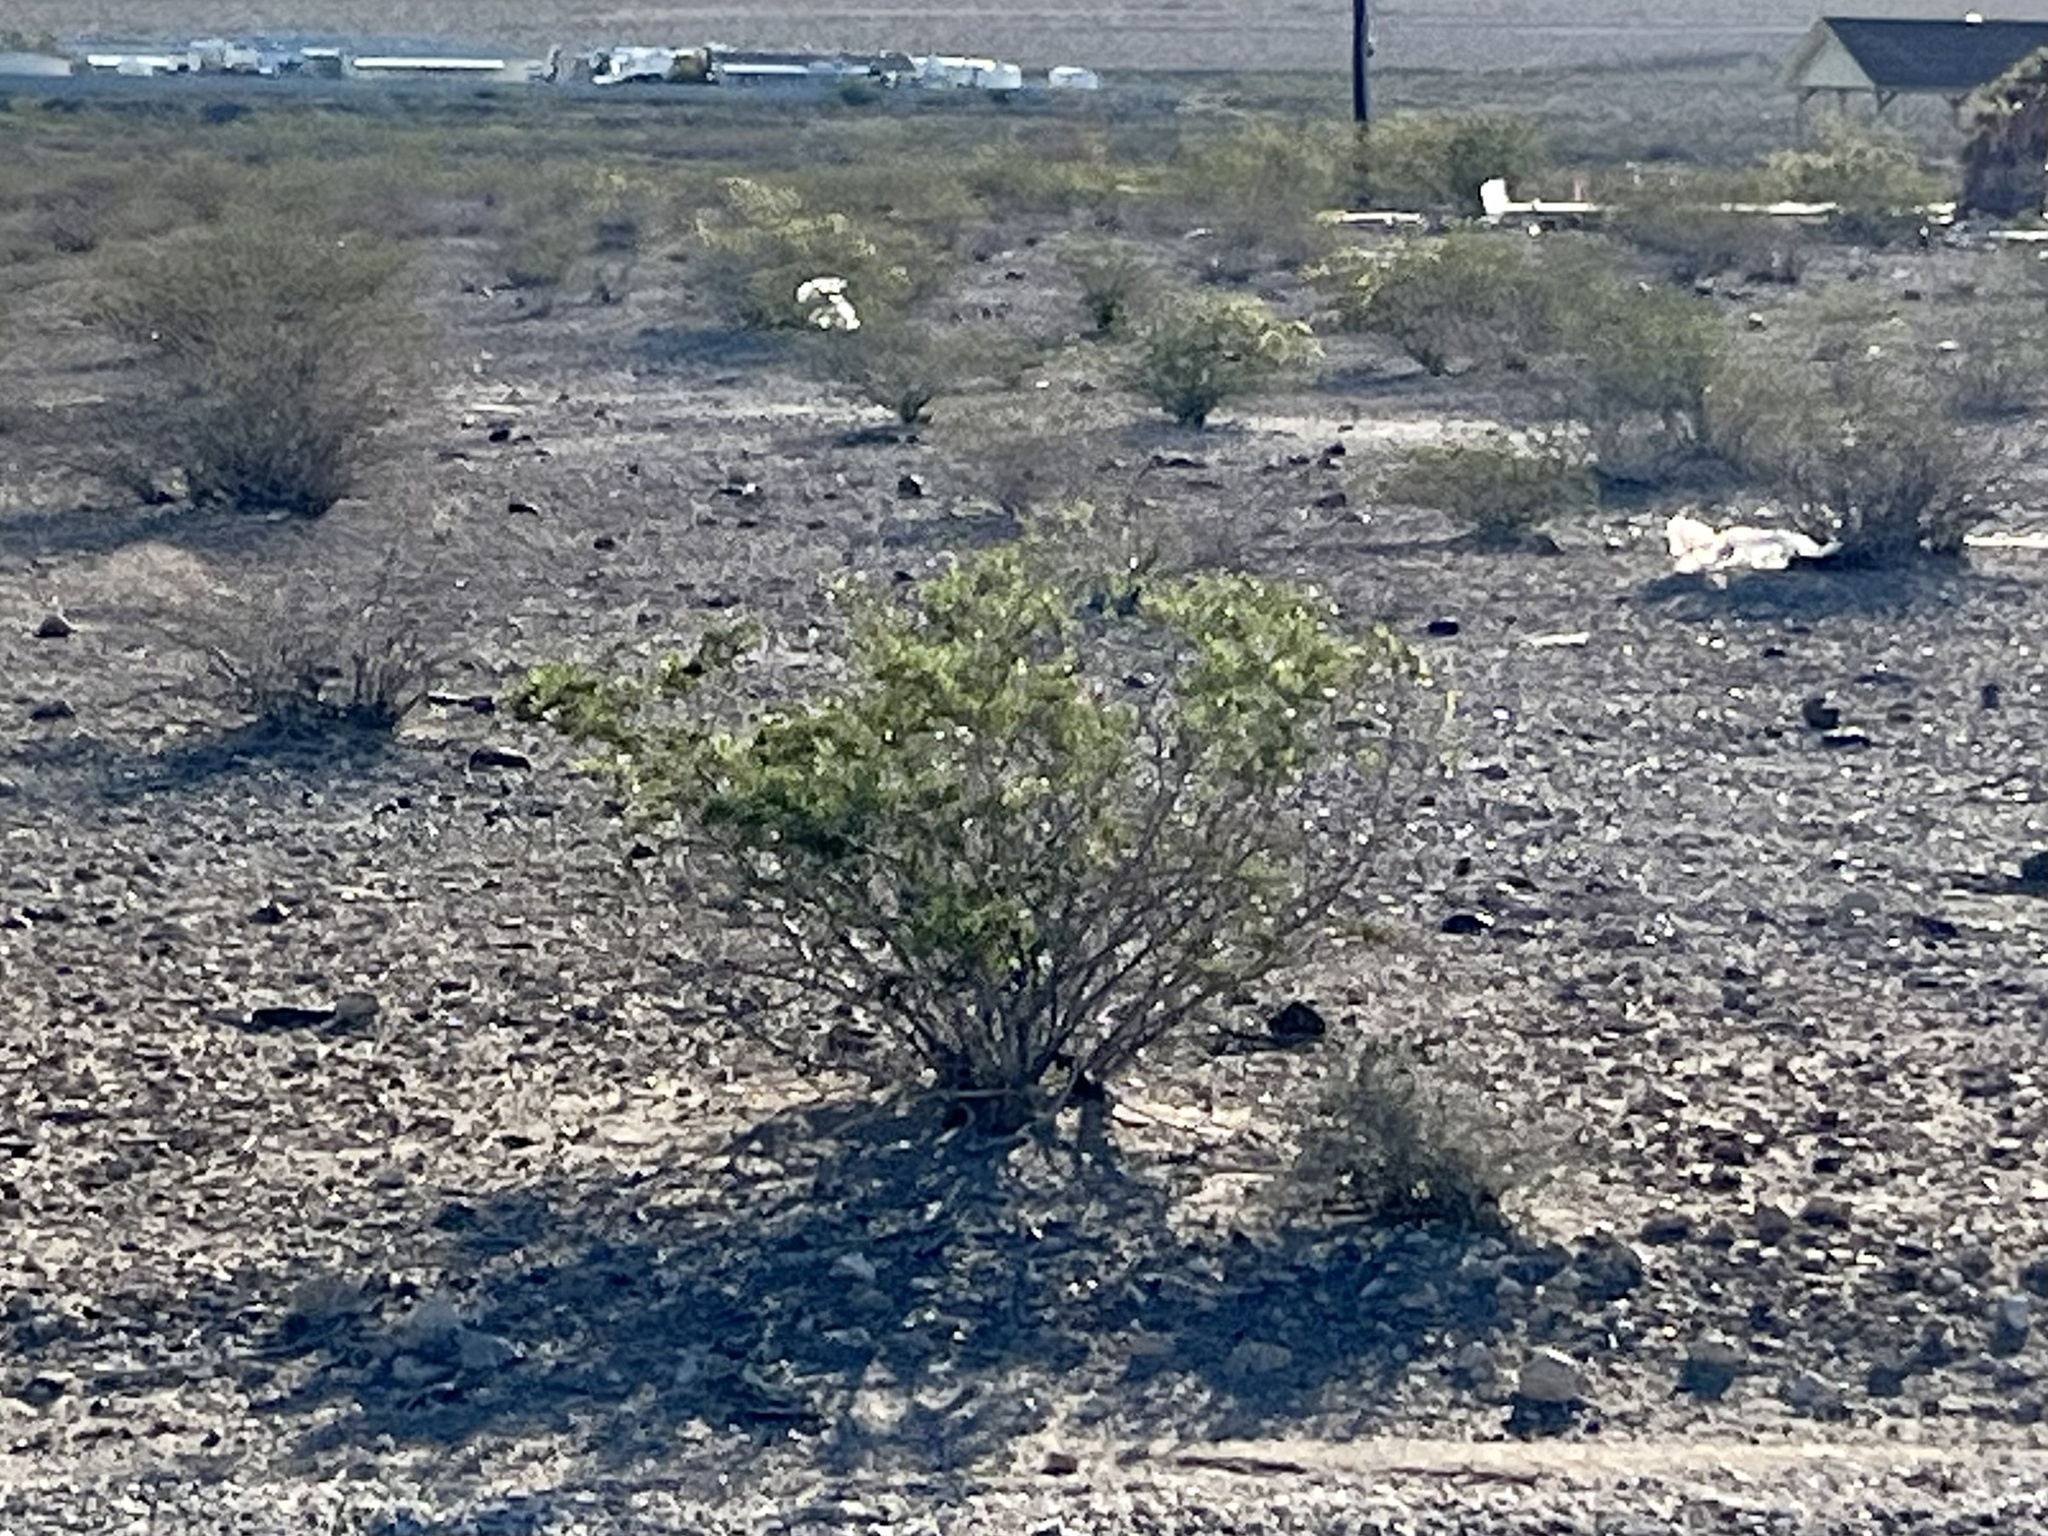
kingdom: Plantae
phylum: Tracheophyta
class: Magnoliopsida
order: Zygophyllales
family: Zygophyllaceae
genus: Larrea
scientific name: Larrea tridentata
